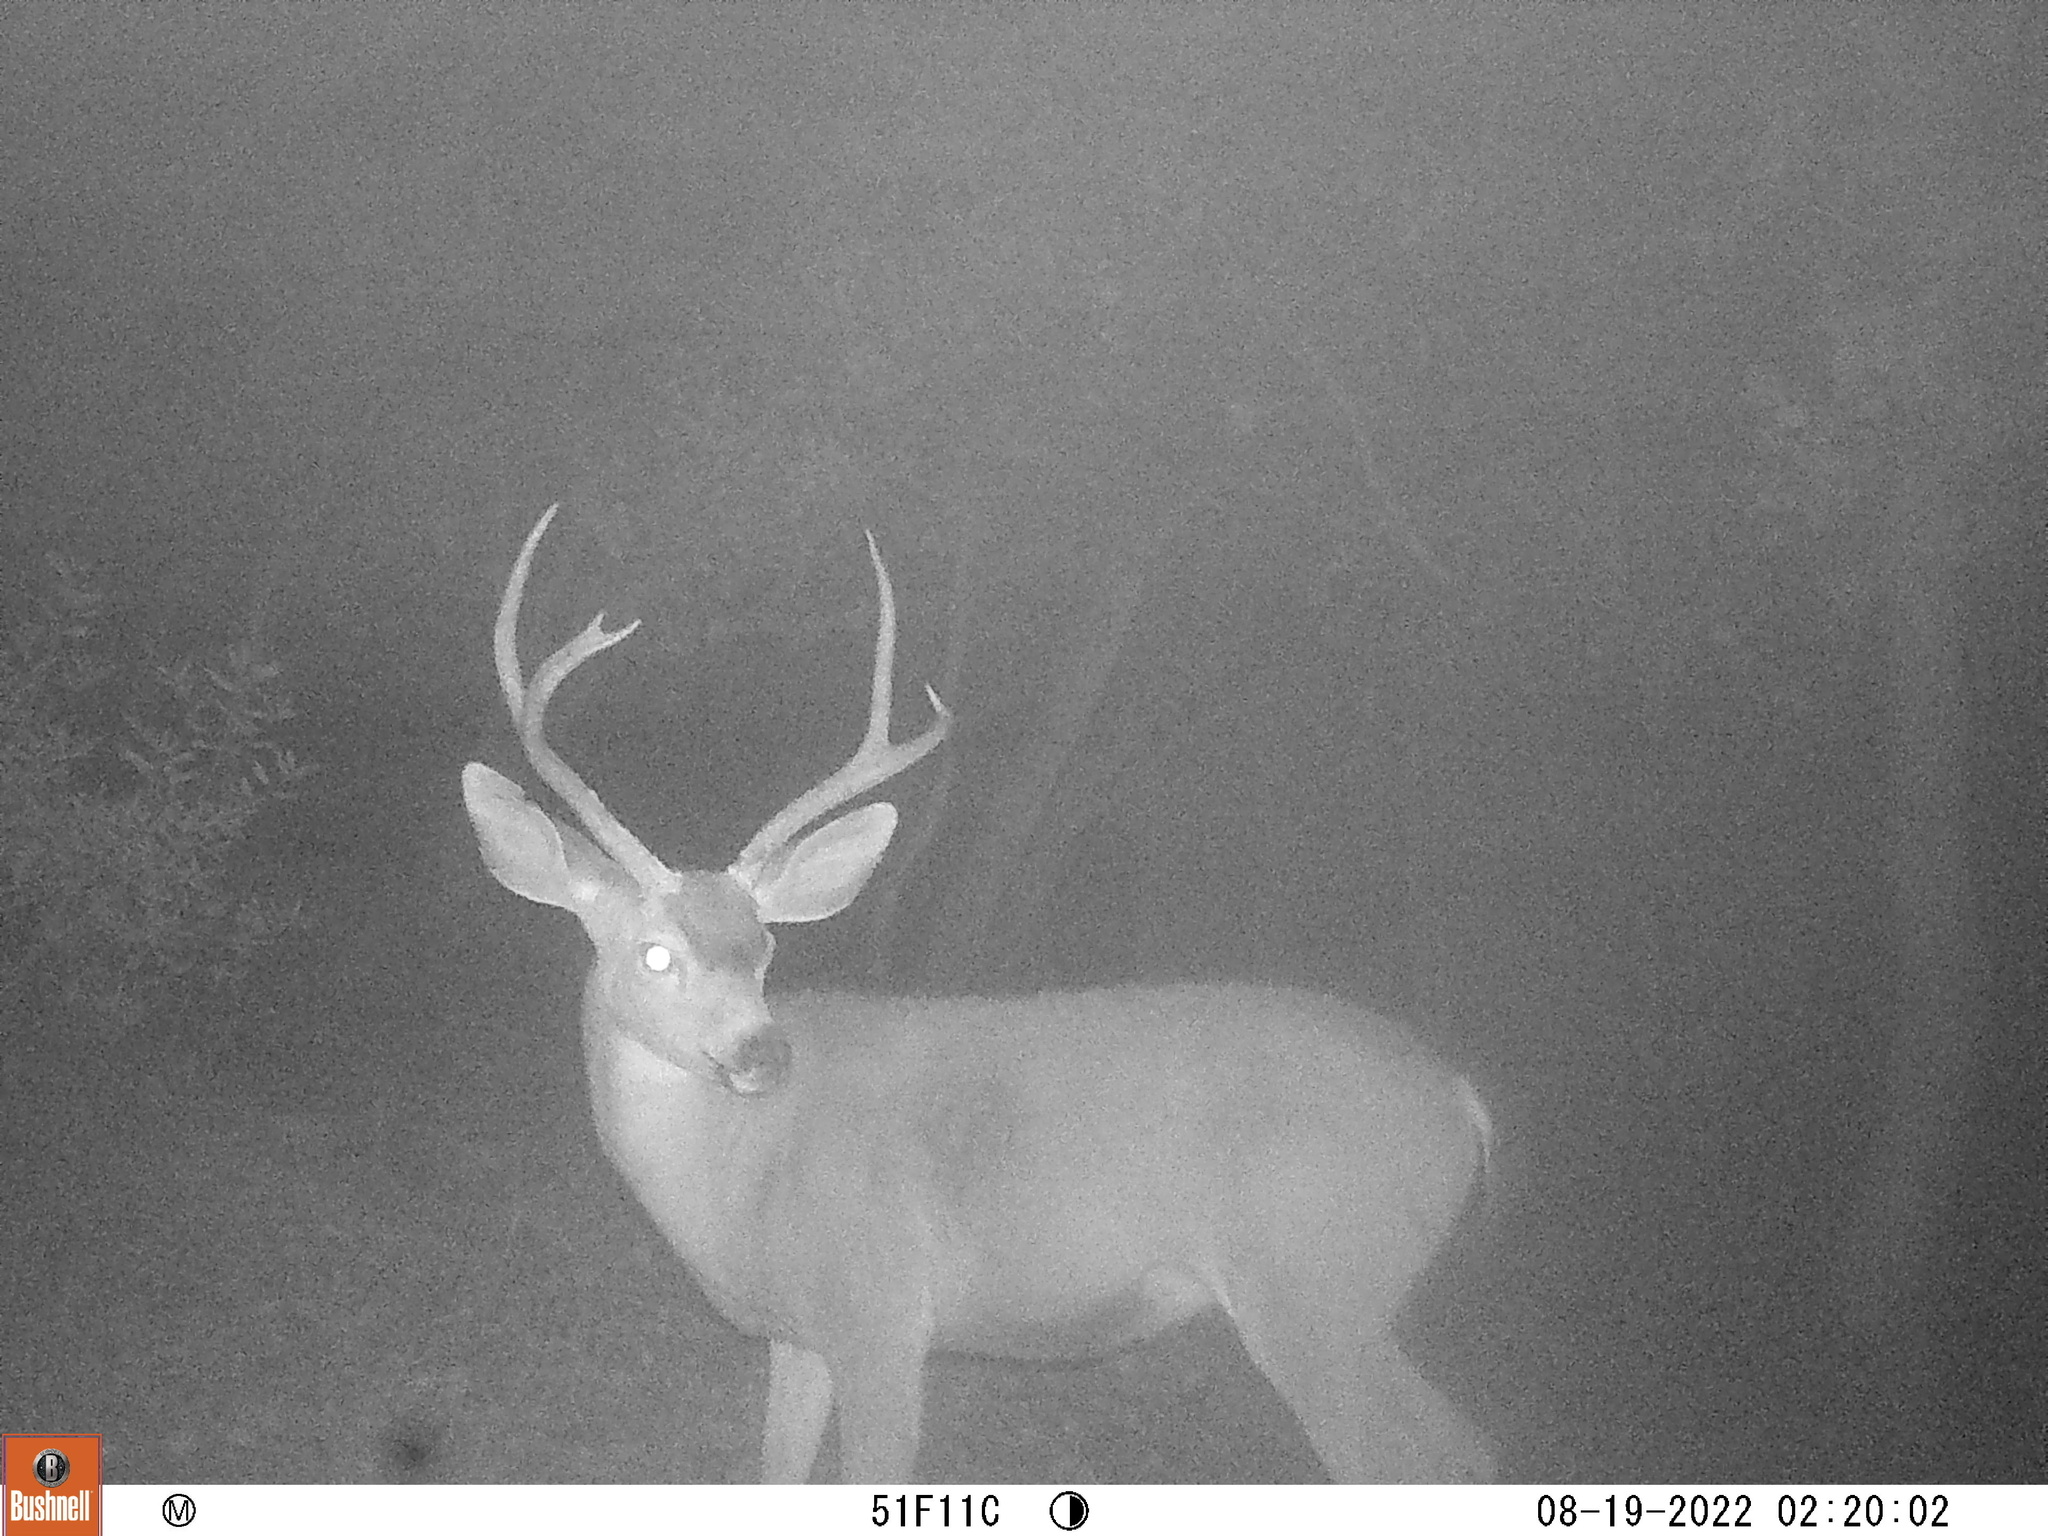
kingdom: Animalia
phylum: Chordata
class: Mammalia
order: Artiodactyla
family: Cervidae
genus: Odocoileus
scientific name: Odocoileus hemionus
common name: Mule deer
